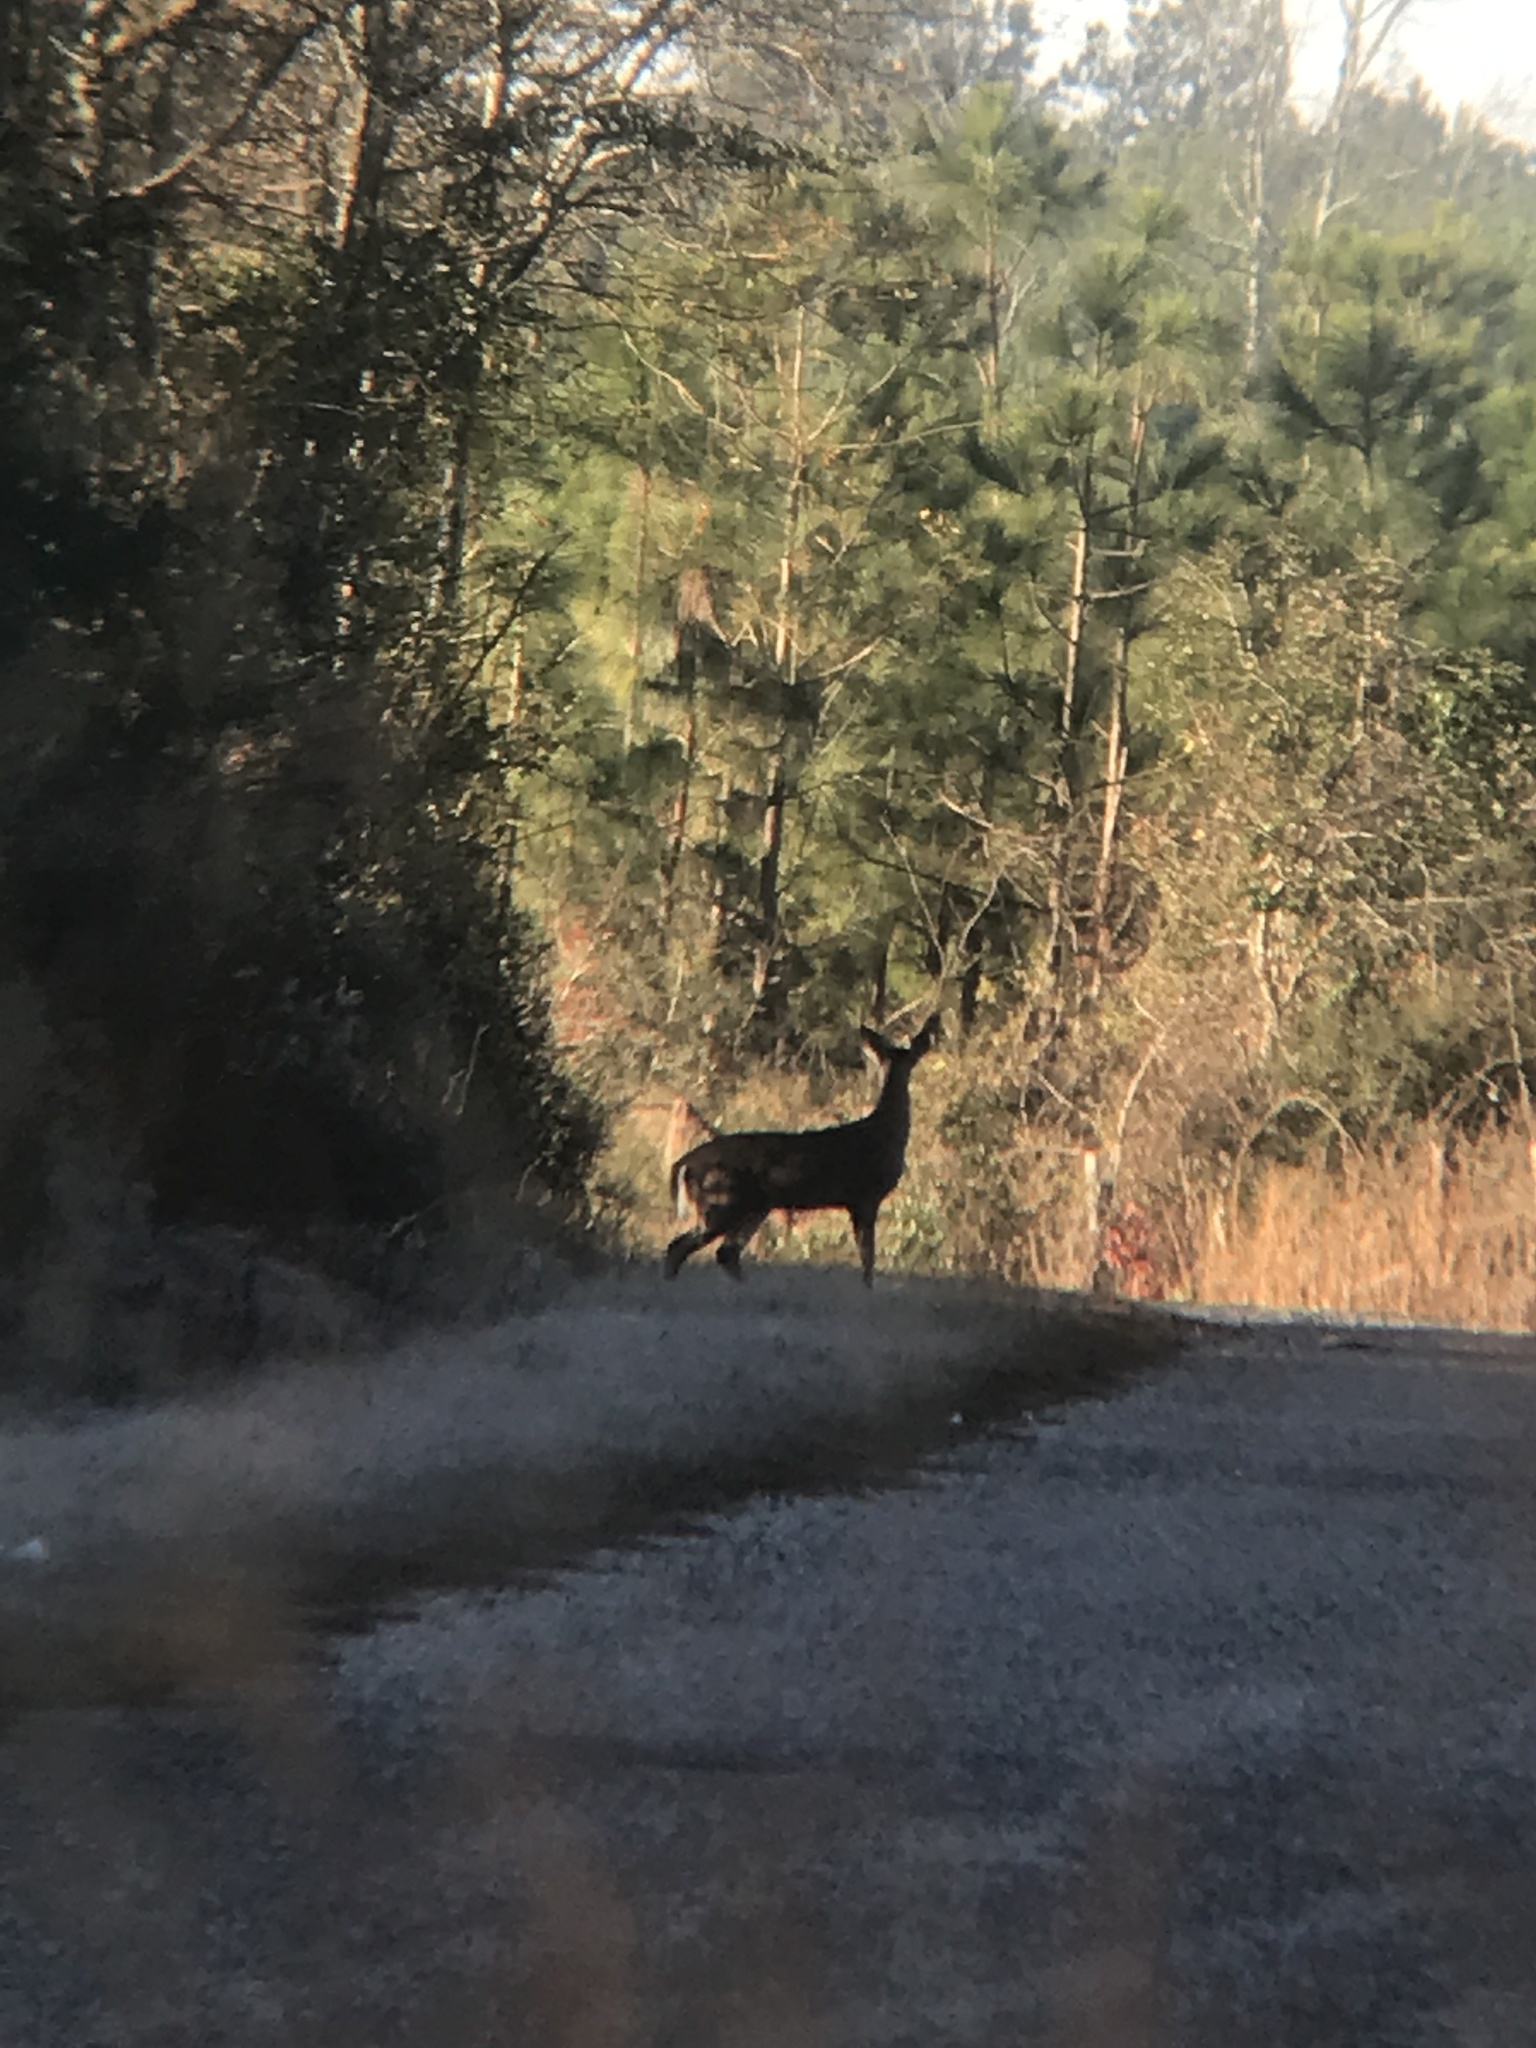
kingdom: Animalia
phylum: Chordata
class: Mammalia
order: Artiodactyla
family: Cervidae
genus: Odocoileus
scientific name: Odocoileus virginianus
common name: White-tailed deer
